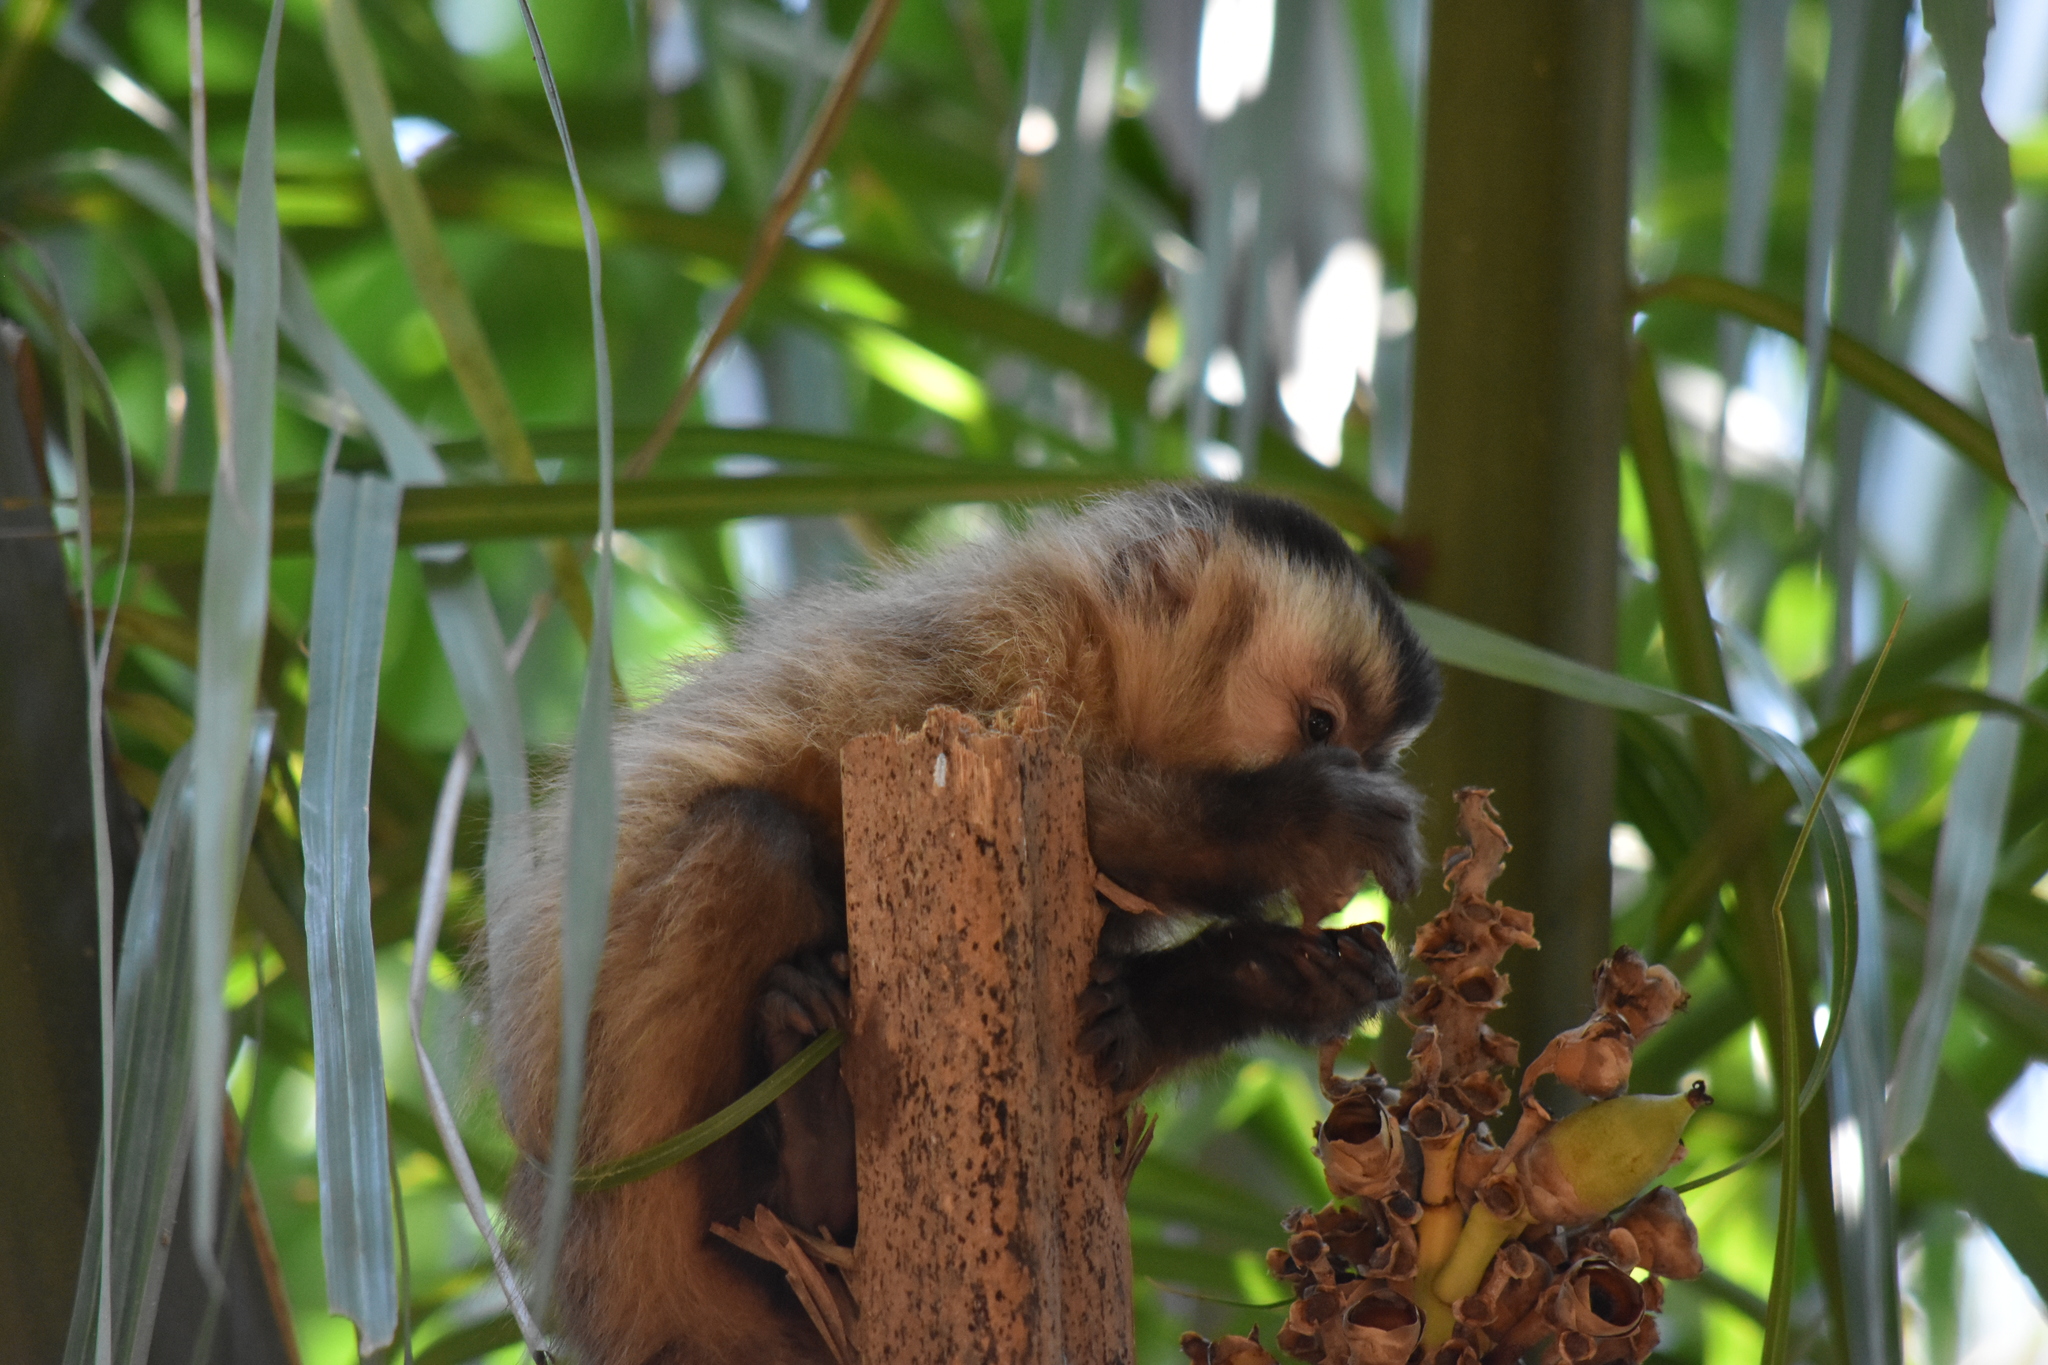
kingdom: Animalia
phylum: Chordata
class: Mammalia
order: Primates
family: Cebidae
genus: Sapajus
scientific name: Sapajus libidinosus
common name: Bearded capuchin
